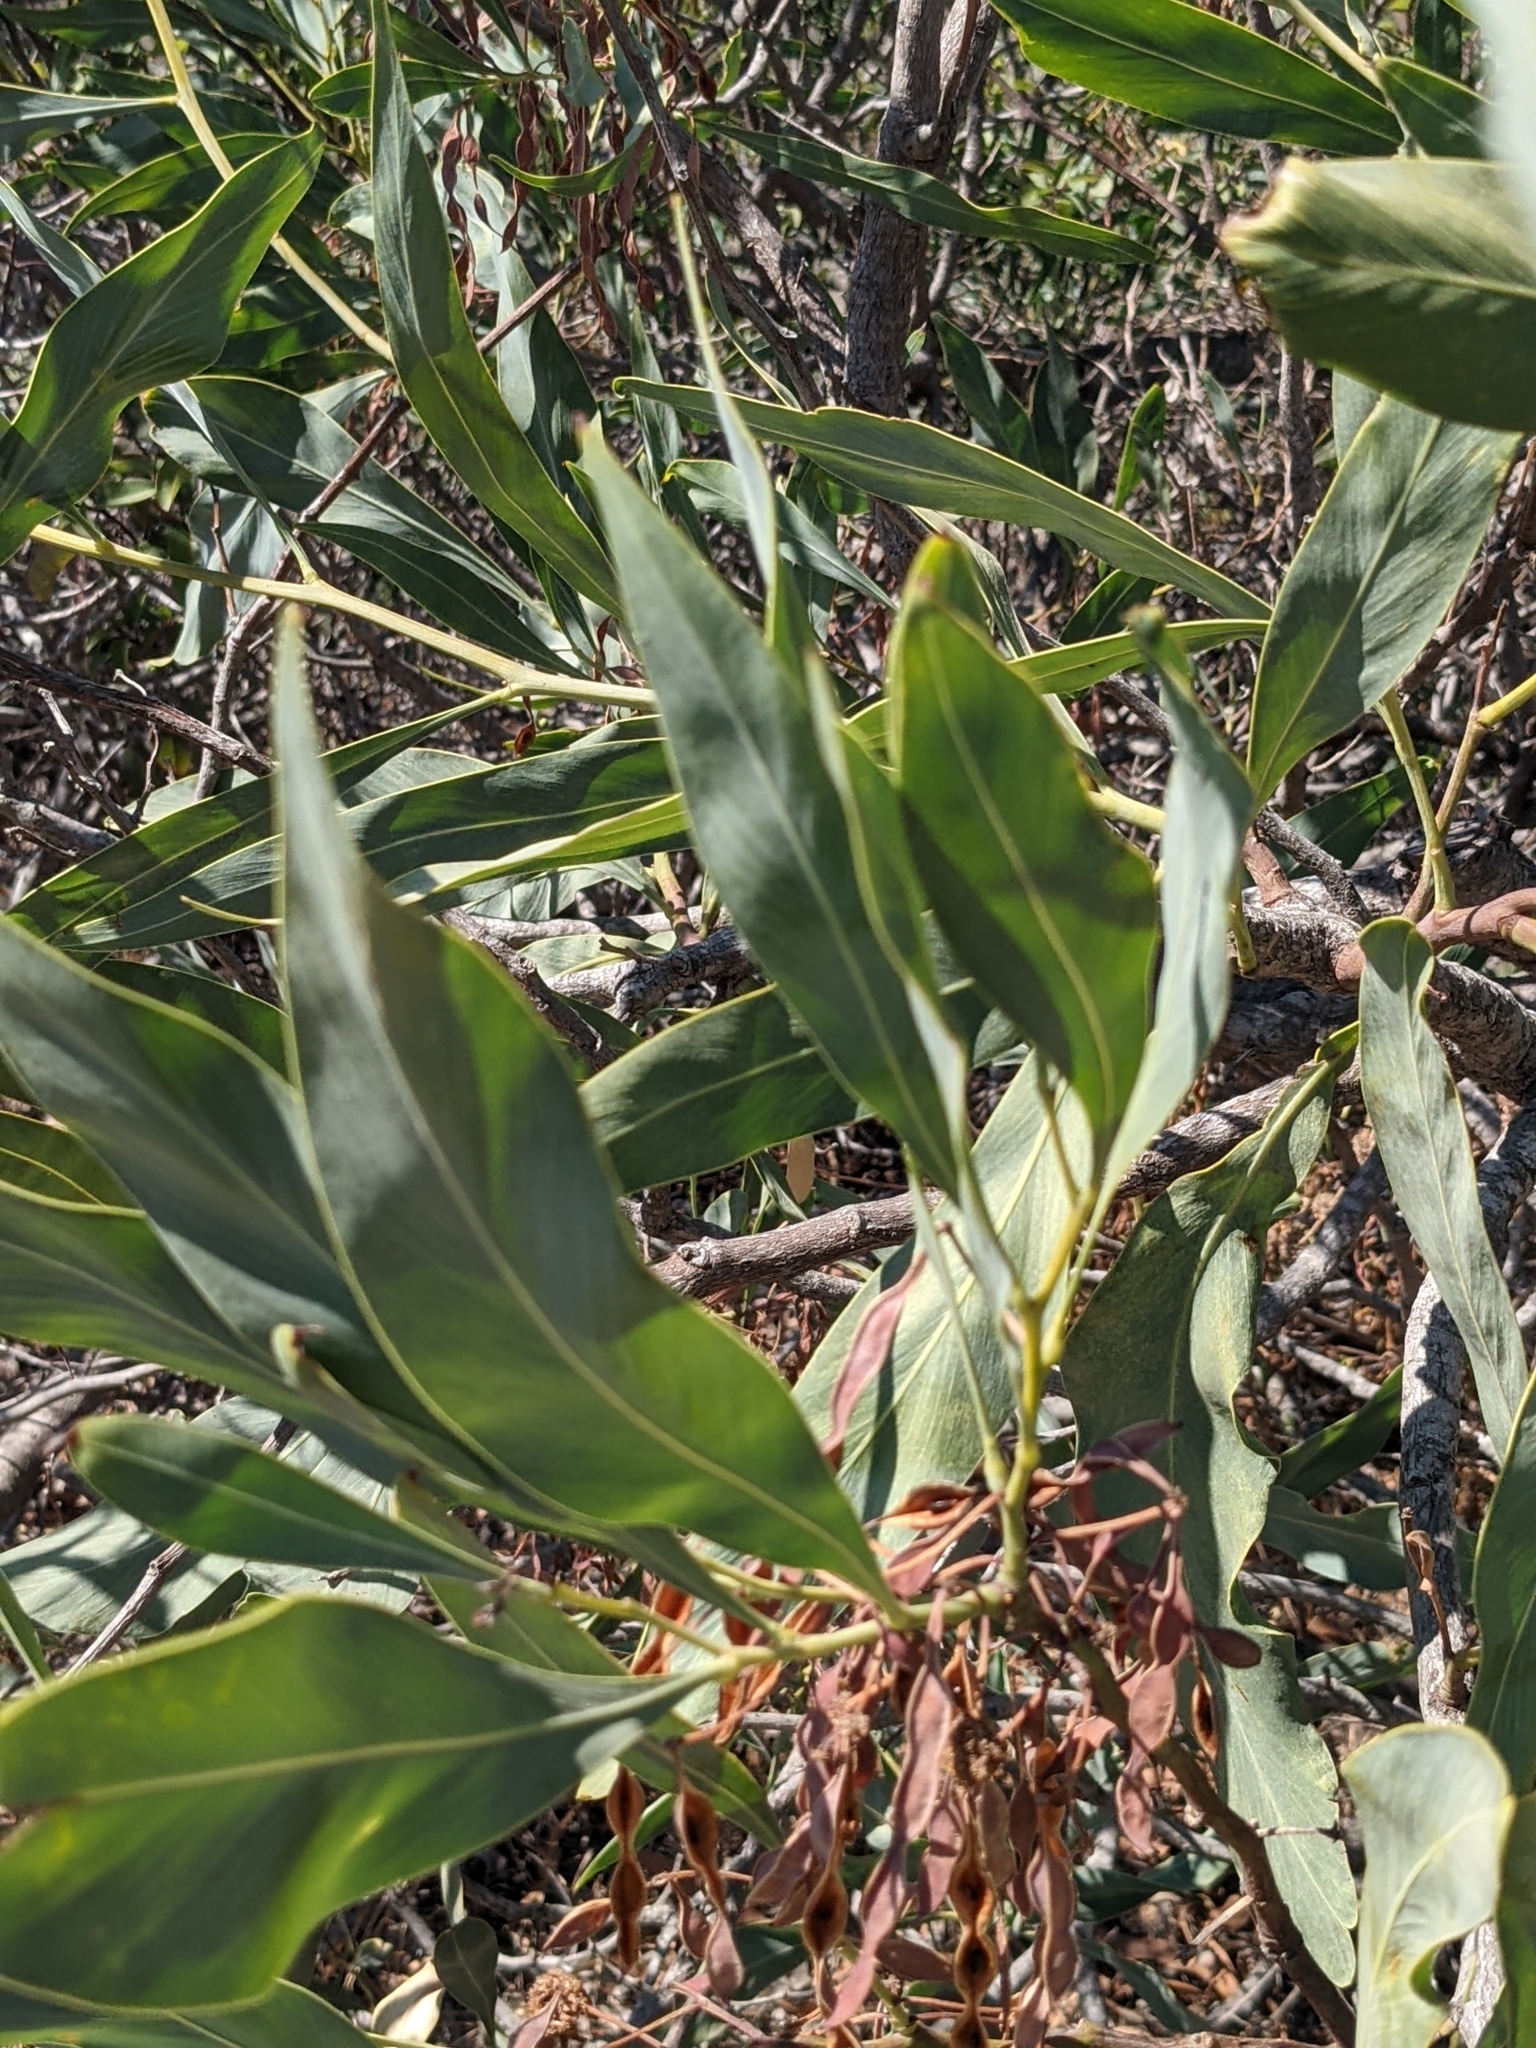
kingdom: Plantae
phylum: Tracheophyta
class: Magnoliopsida
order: Fabales
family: Fabaceae
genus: Acacia
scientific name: Acacia pycnantha
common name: Golden wattle
